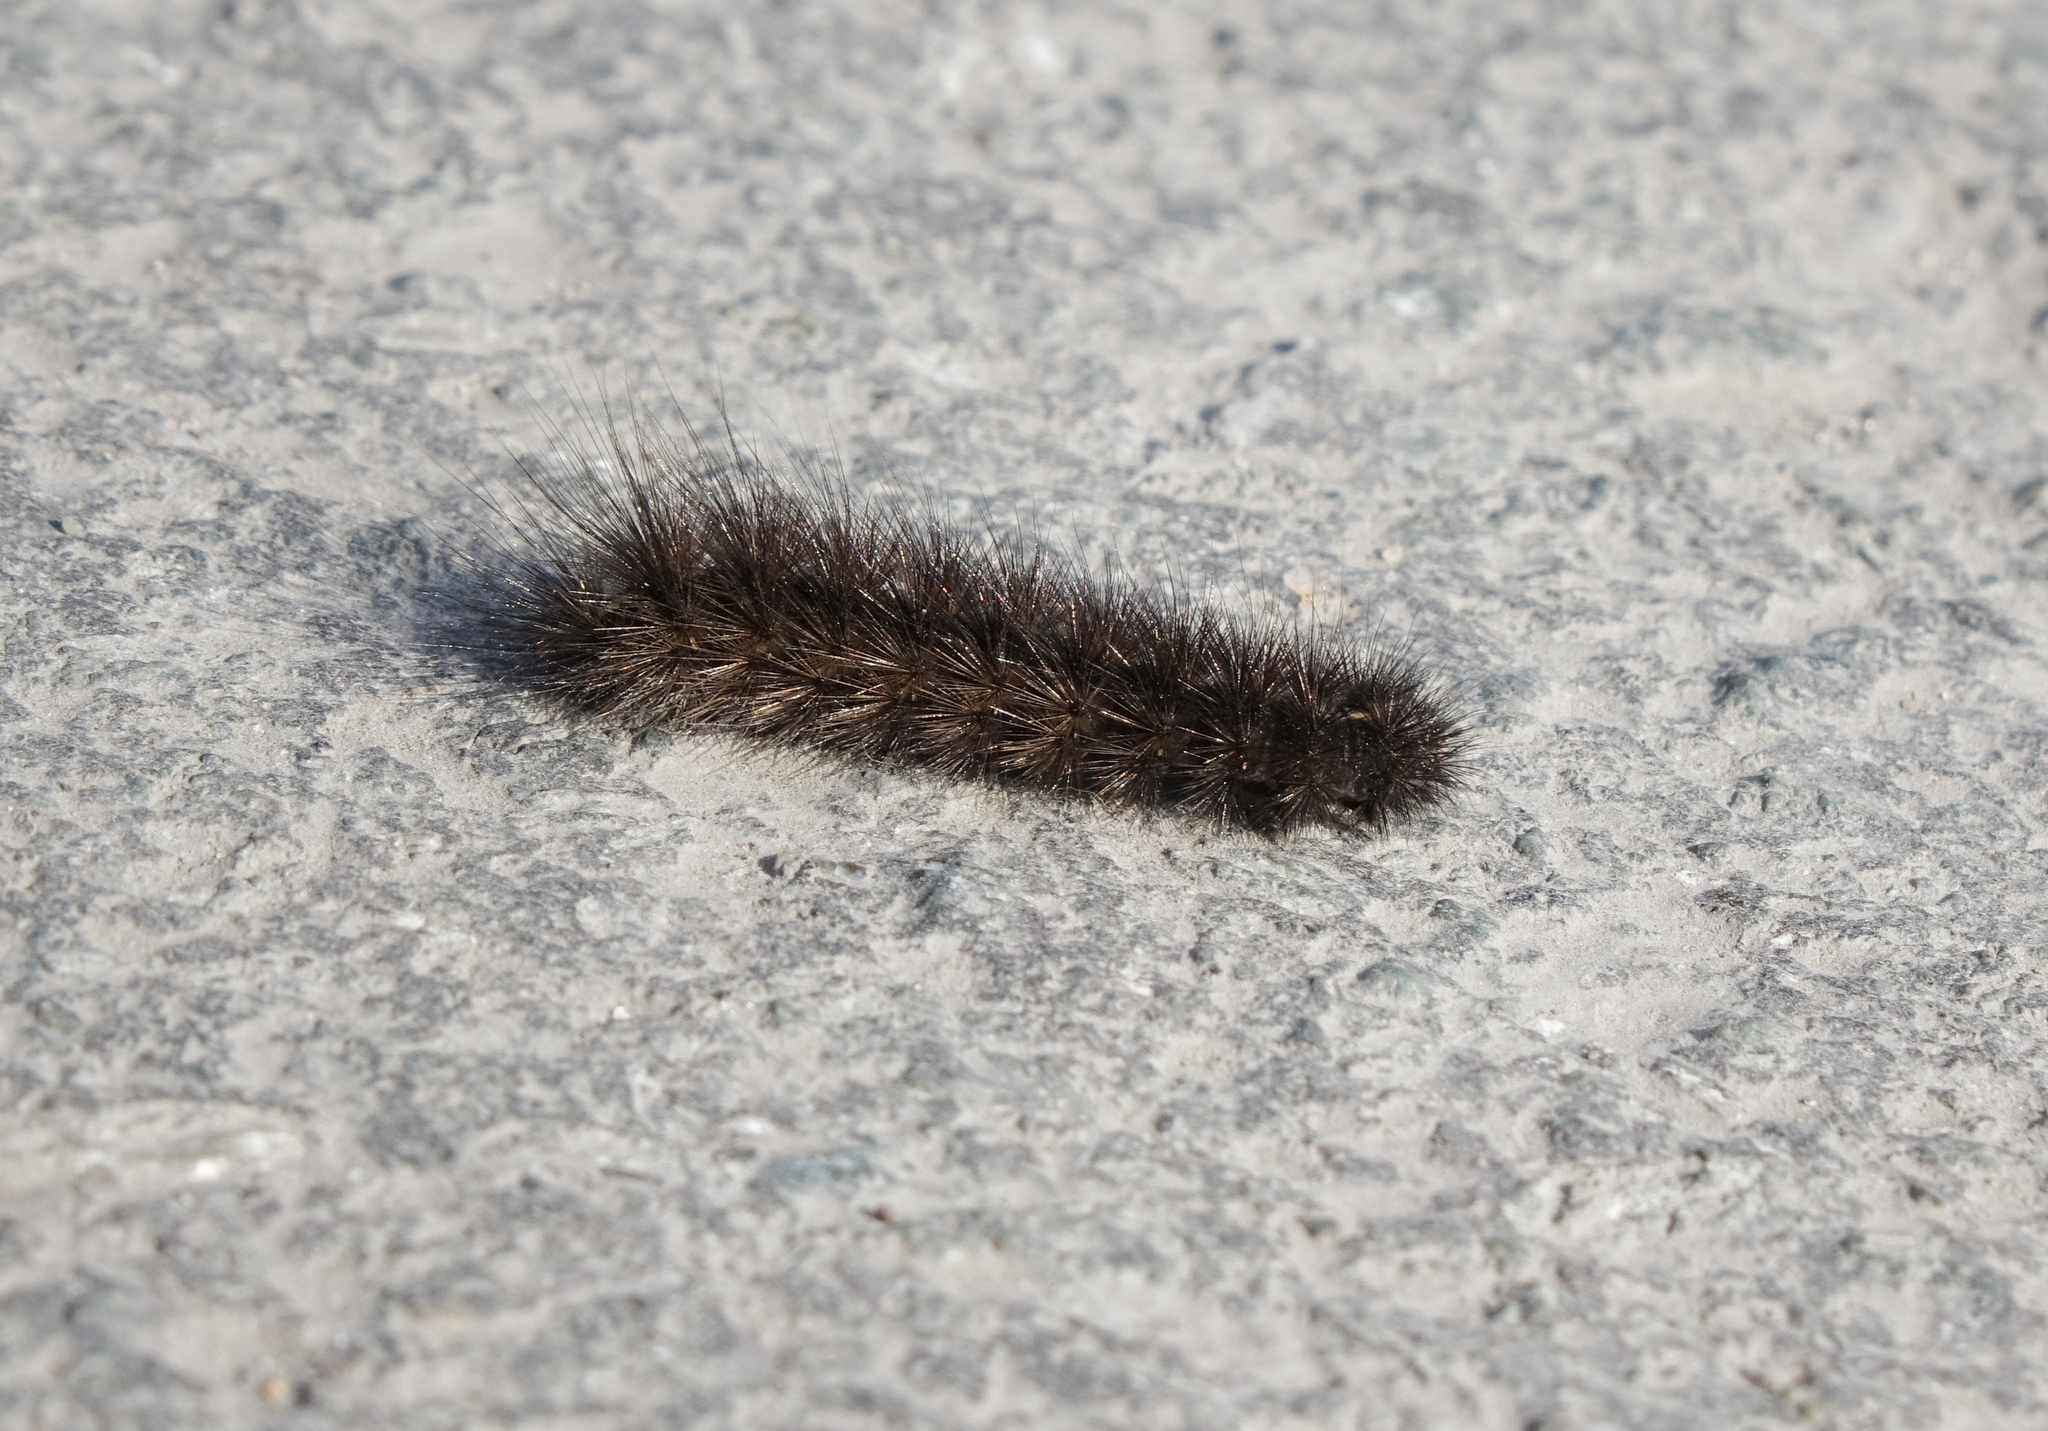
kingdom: Animalia
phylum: Arthropoda
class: Insecta
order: Lepidoptera
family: Erebidae
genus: Phragmatobia
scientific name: Phragmatobia fuliginosa
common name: Ruby tiger
